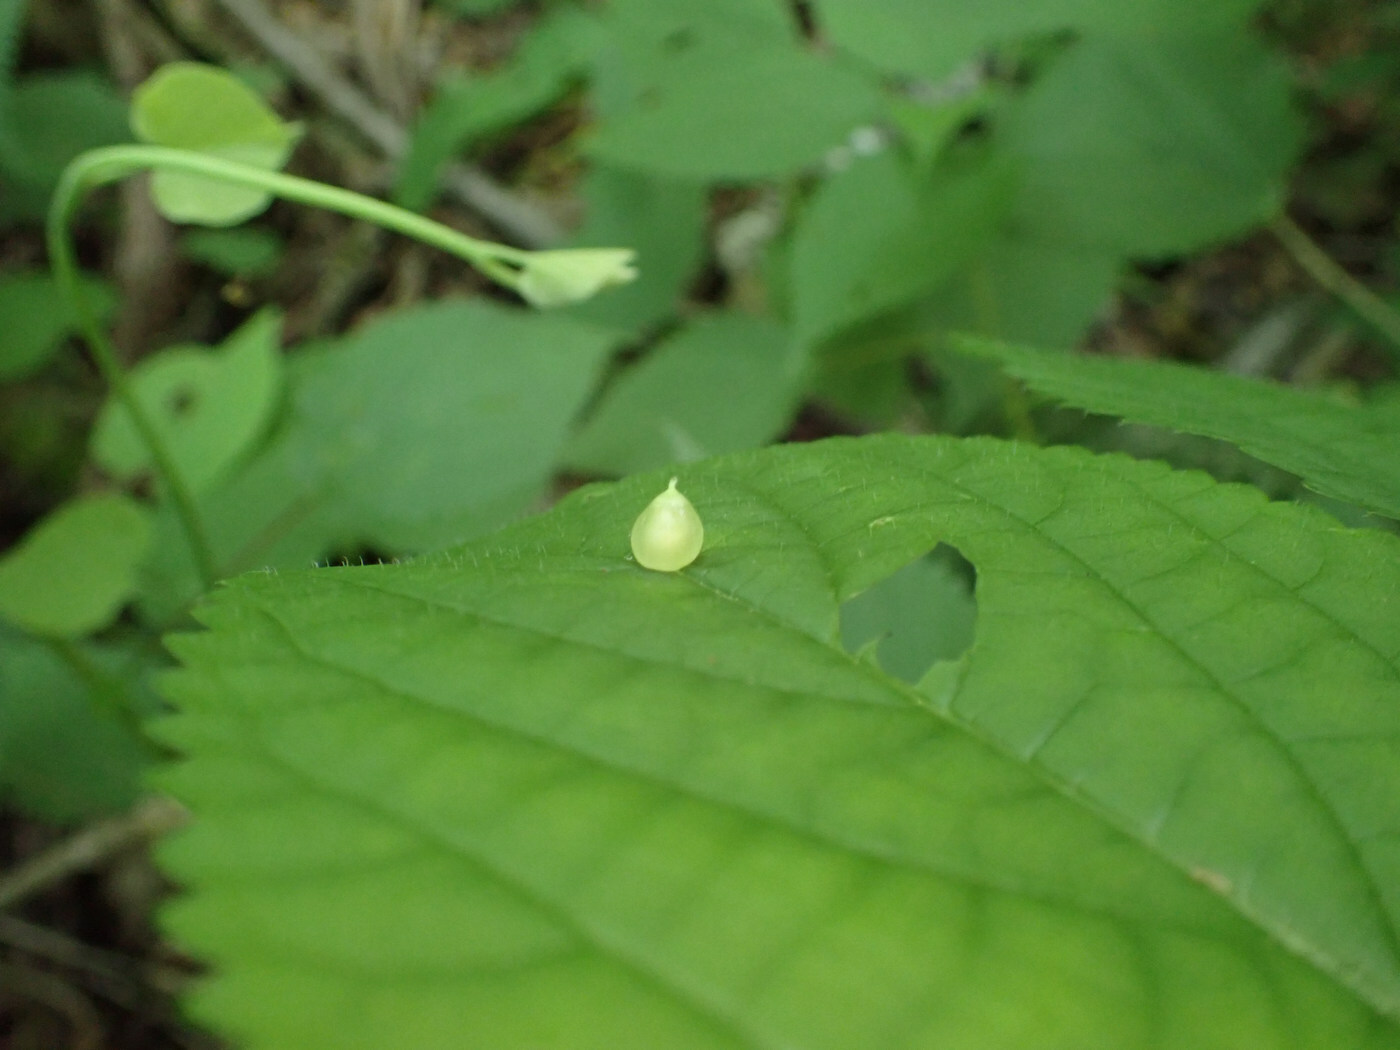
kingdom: Animalia
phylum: Arthropoda
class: Insecta
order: Diptera
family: Cecidomyiidae
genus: Dasineura
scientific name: Dasineura investita
